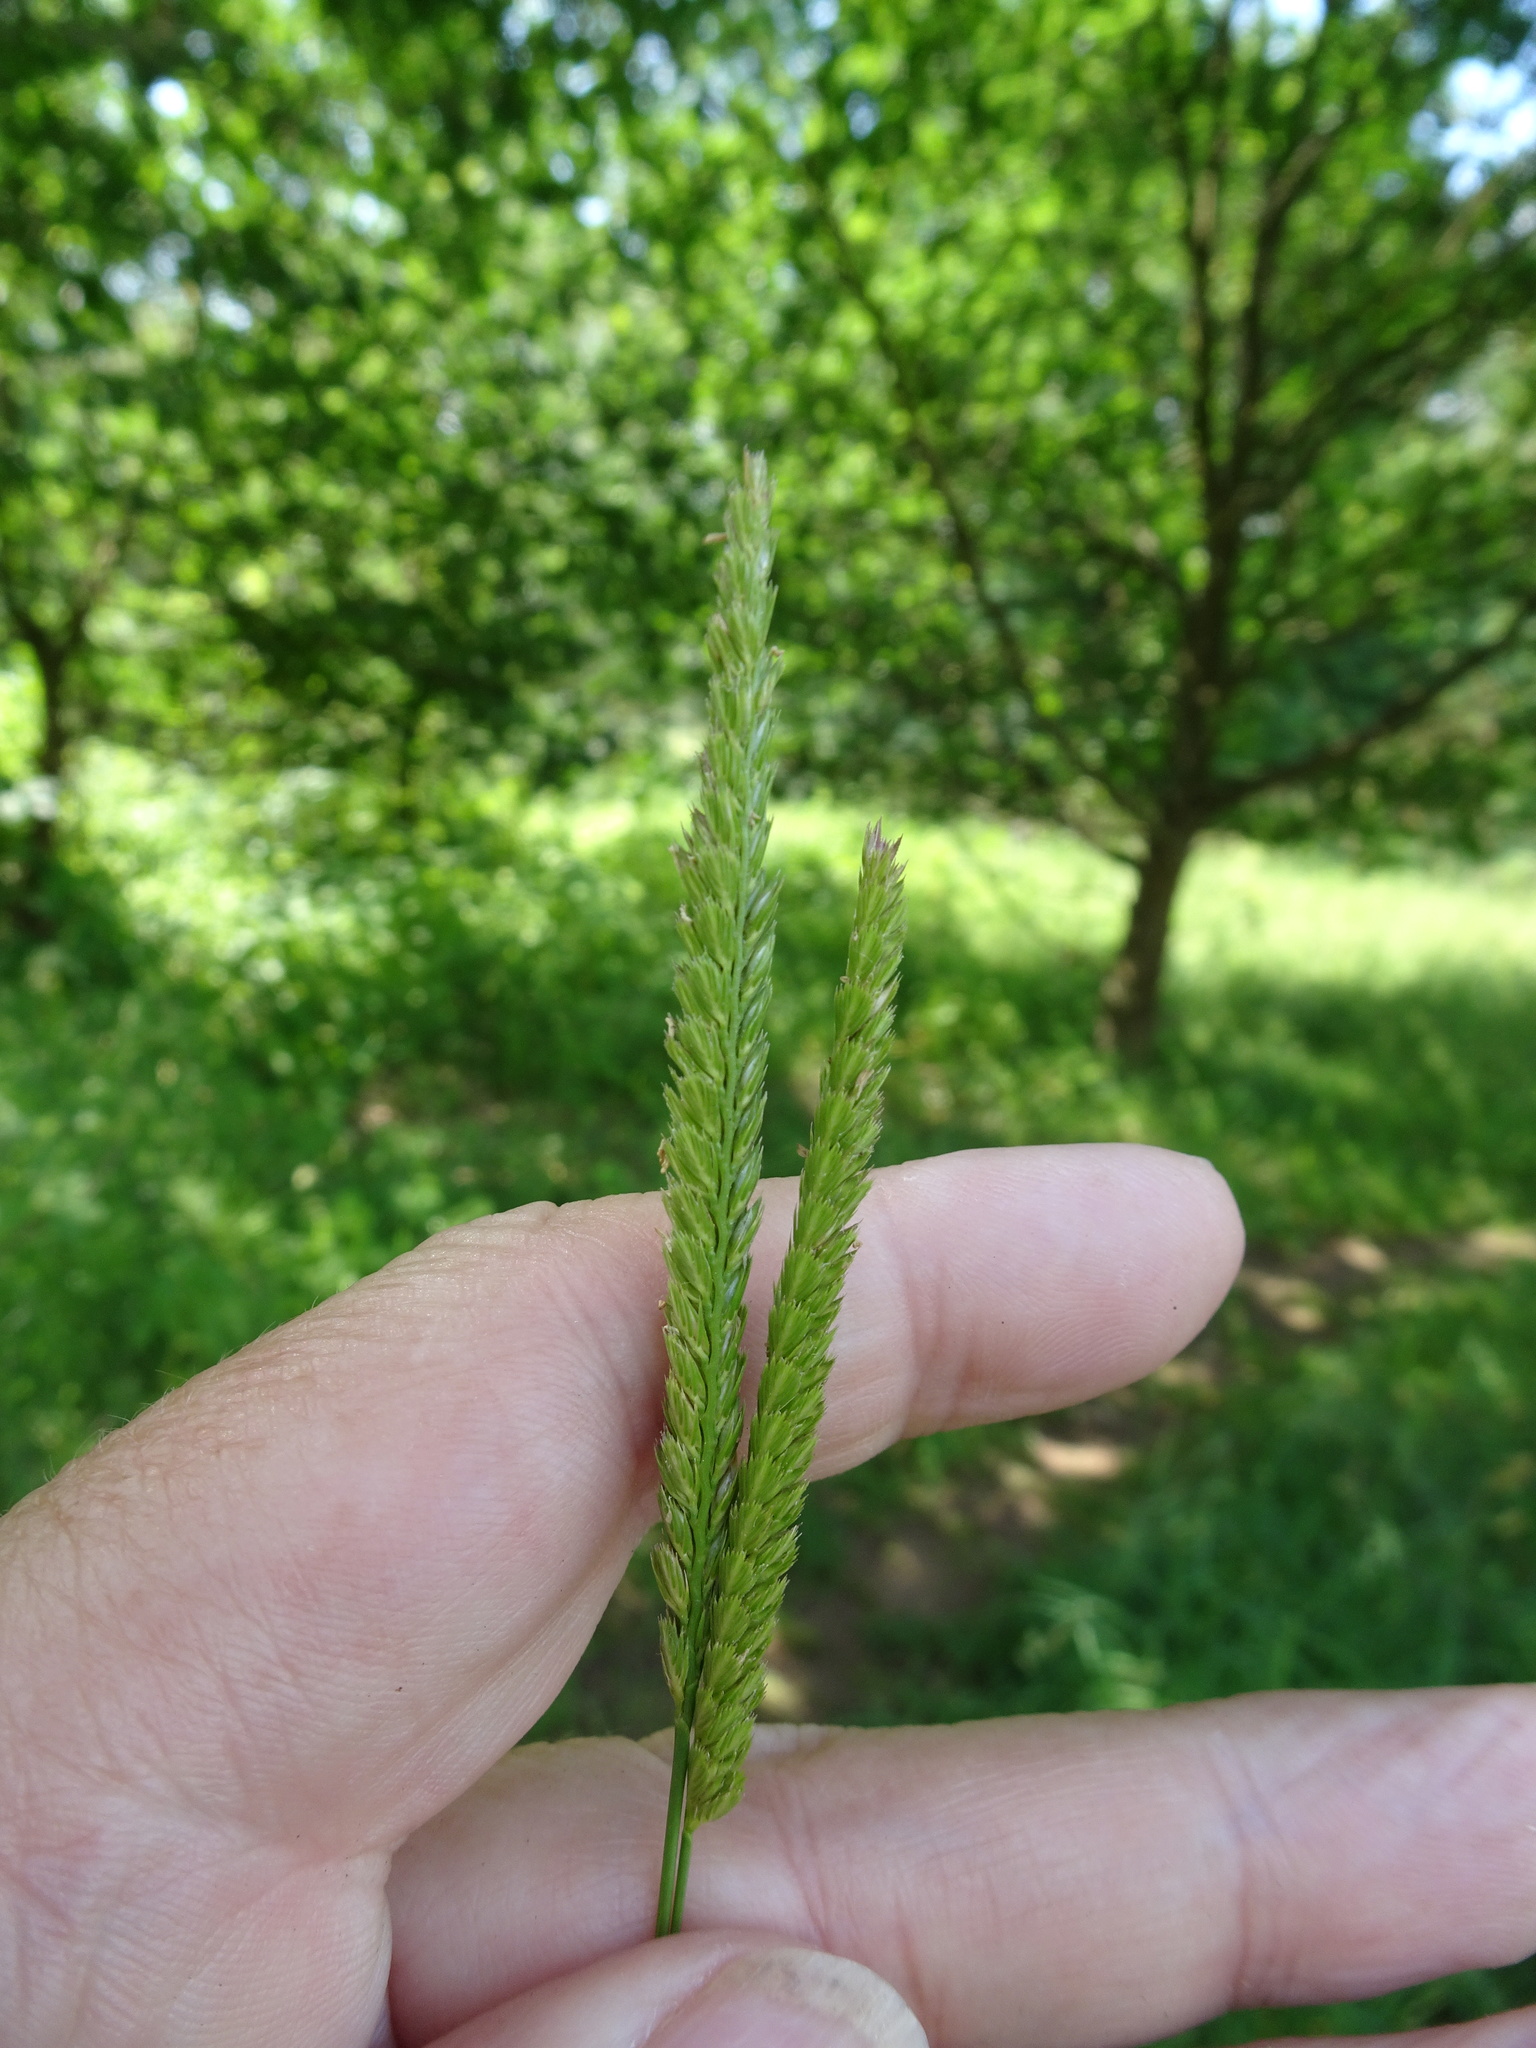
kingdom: Plantae
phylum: Tracheophyta
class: Liliopsida
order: Poales
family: Poaceae
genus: Cynosurus
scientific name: Cynosurus cristatus
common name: Crested dog's-tail
